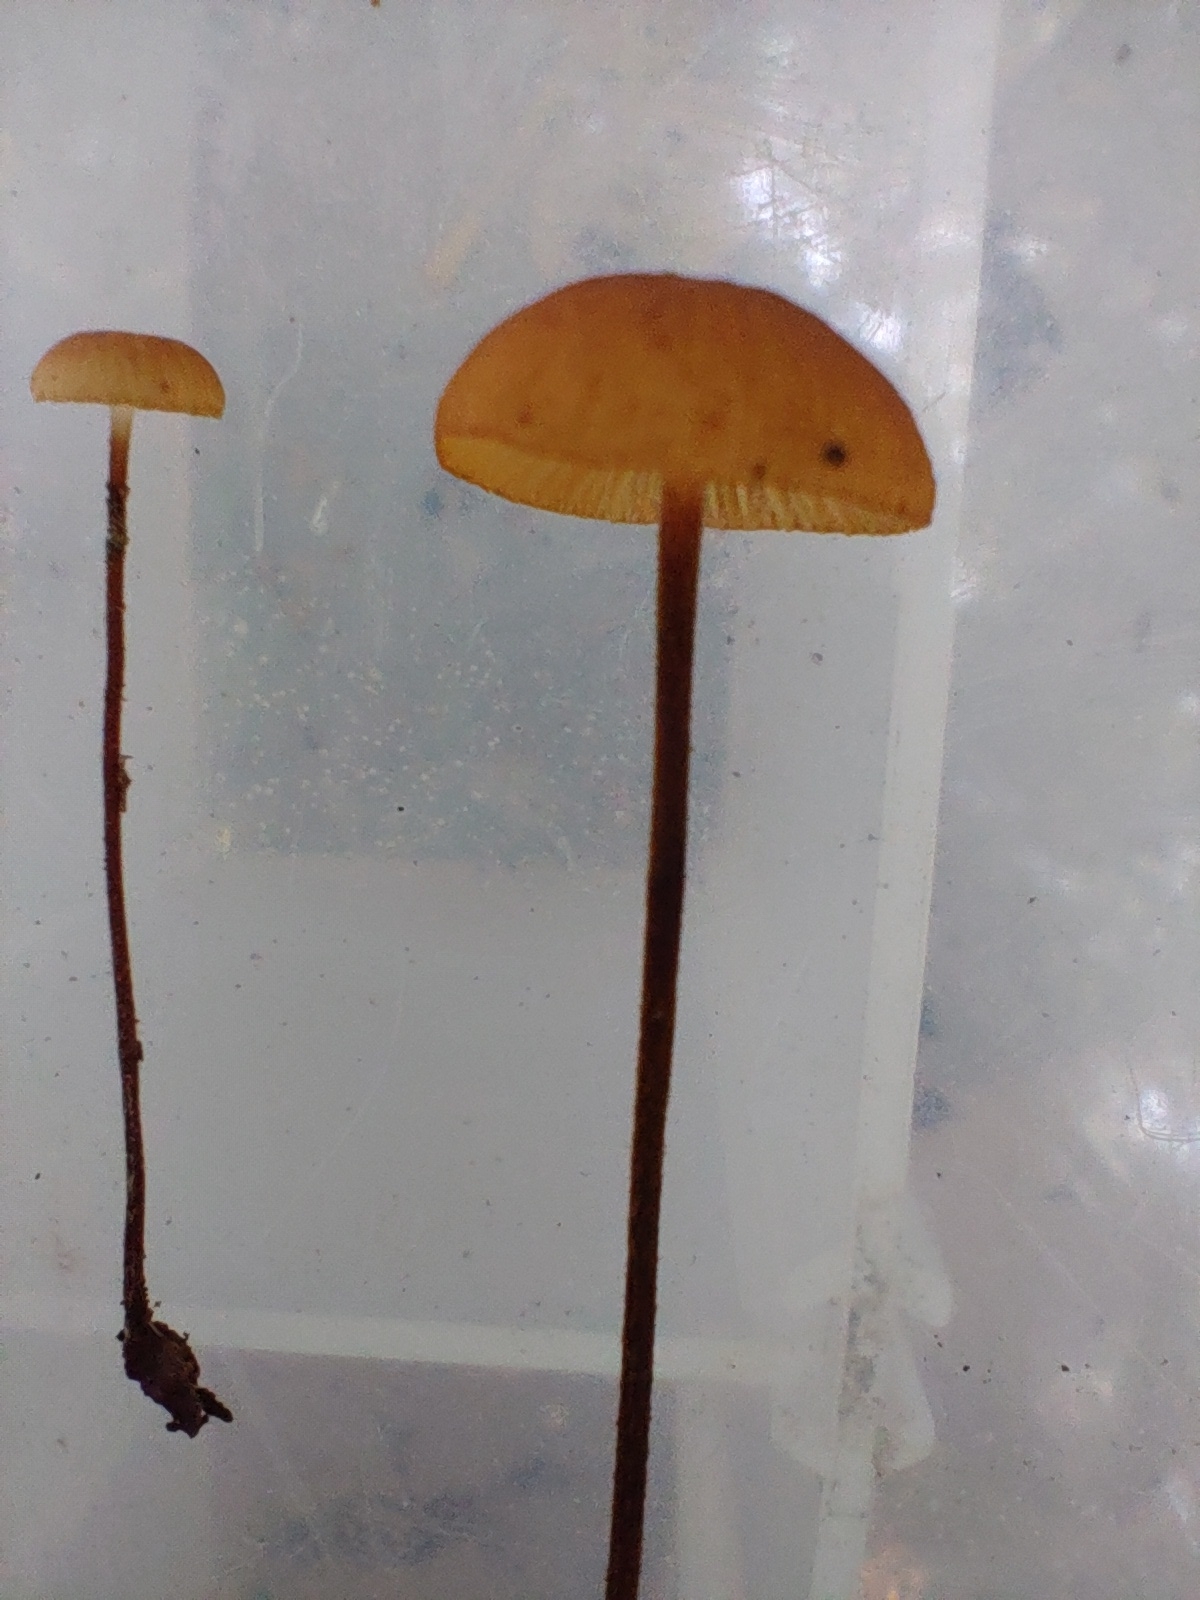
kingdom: Fungi
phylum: Basidiomycota
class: Agaricomycetes
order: Agaricales
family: Physalacriaceae
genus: Rhizomarasmius
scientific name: Rhizomarasmius pyrrhocephalus
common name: Hairy long stem marasmius
